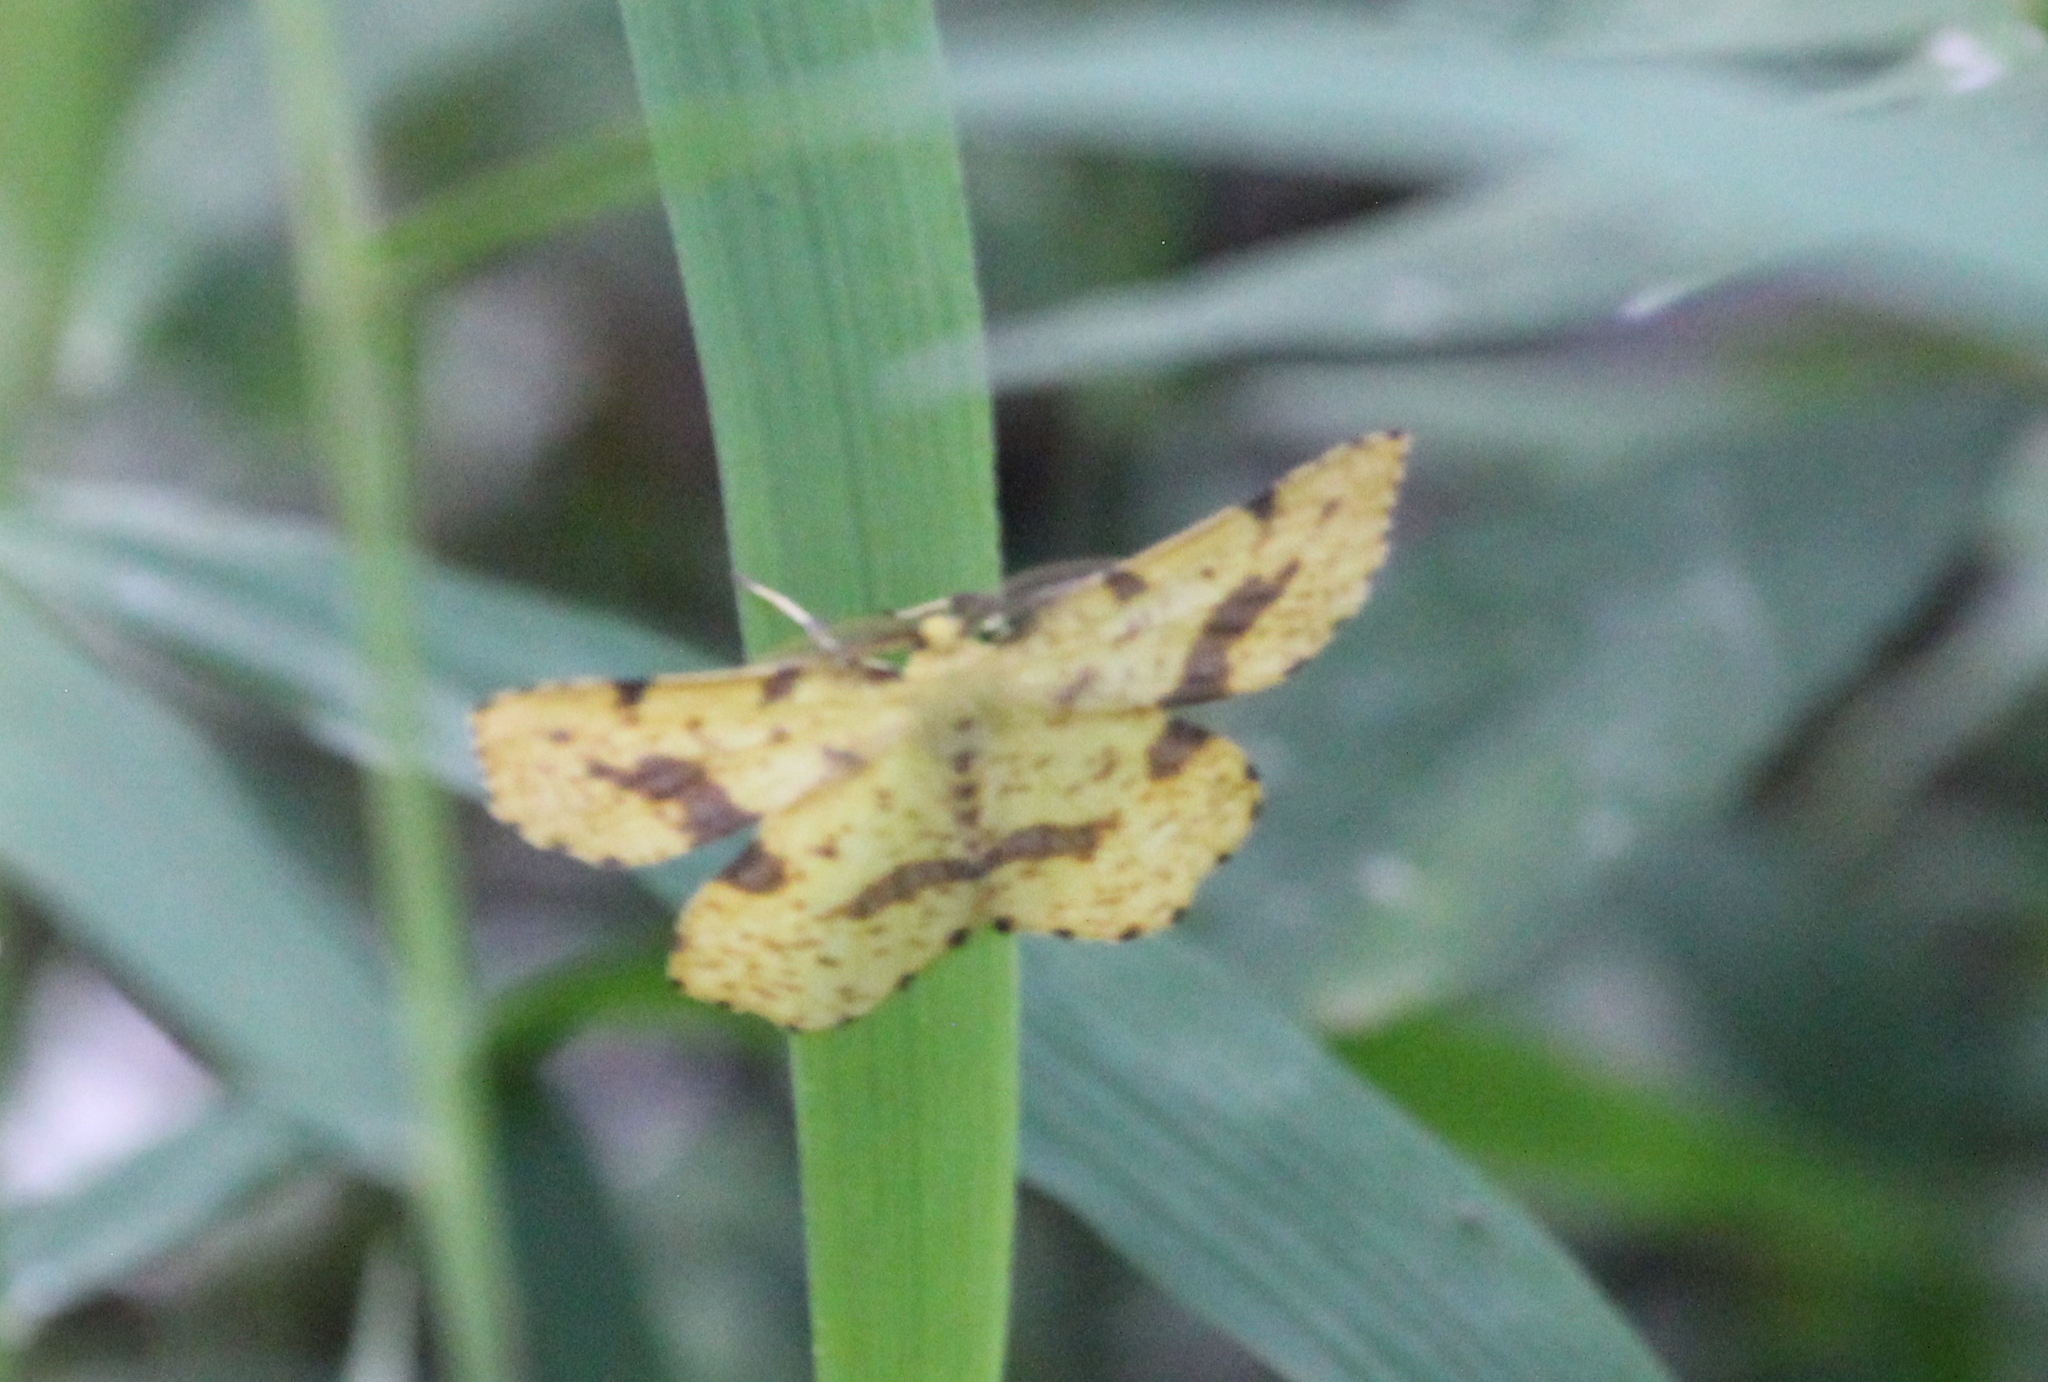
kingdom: Animalia
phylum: Arthropoda
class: Insecta
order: Lepidoptera
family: Geometridae
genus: Xanthotype
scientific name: Xanthotype
